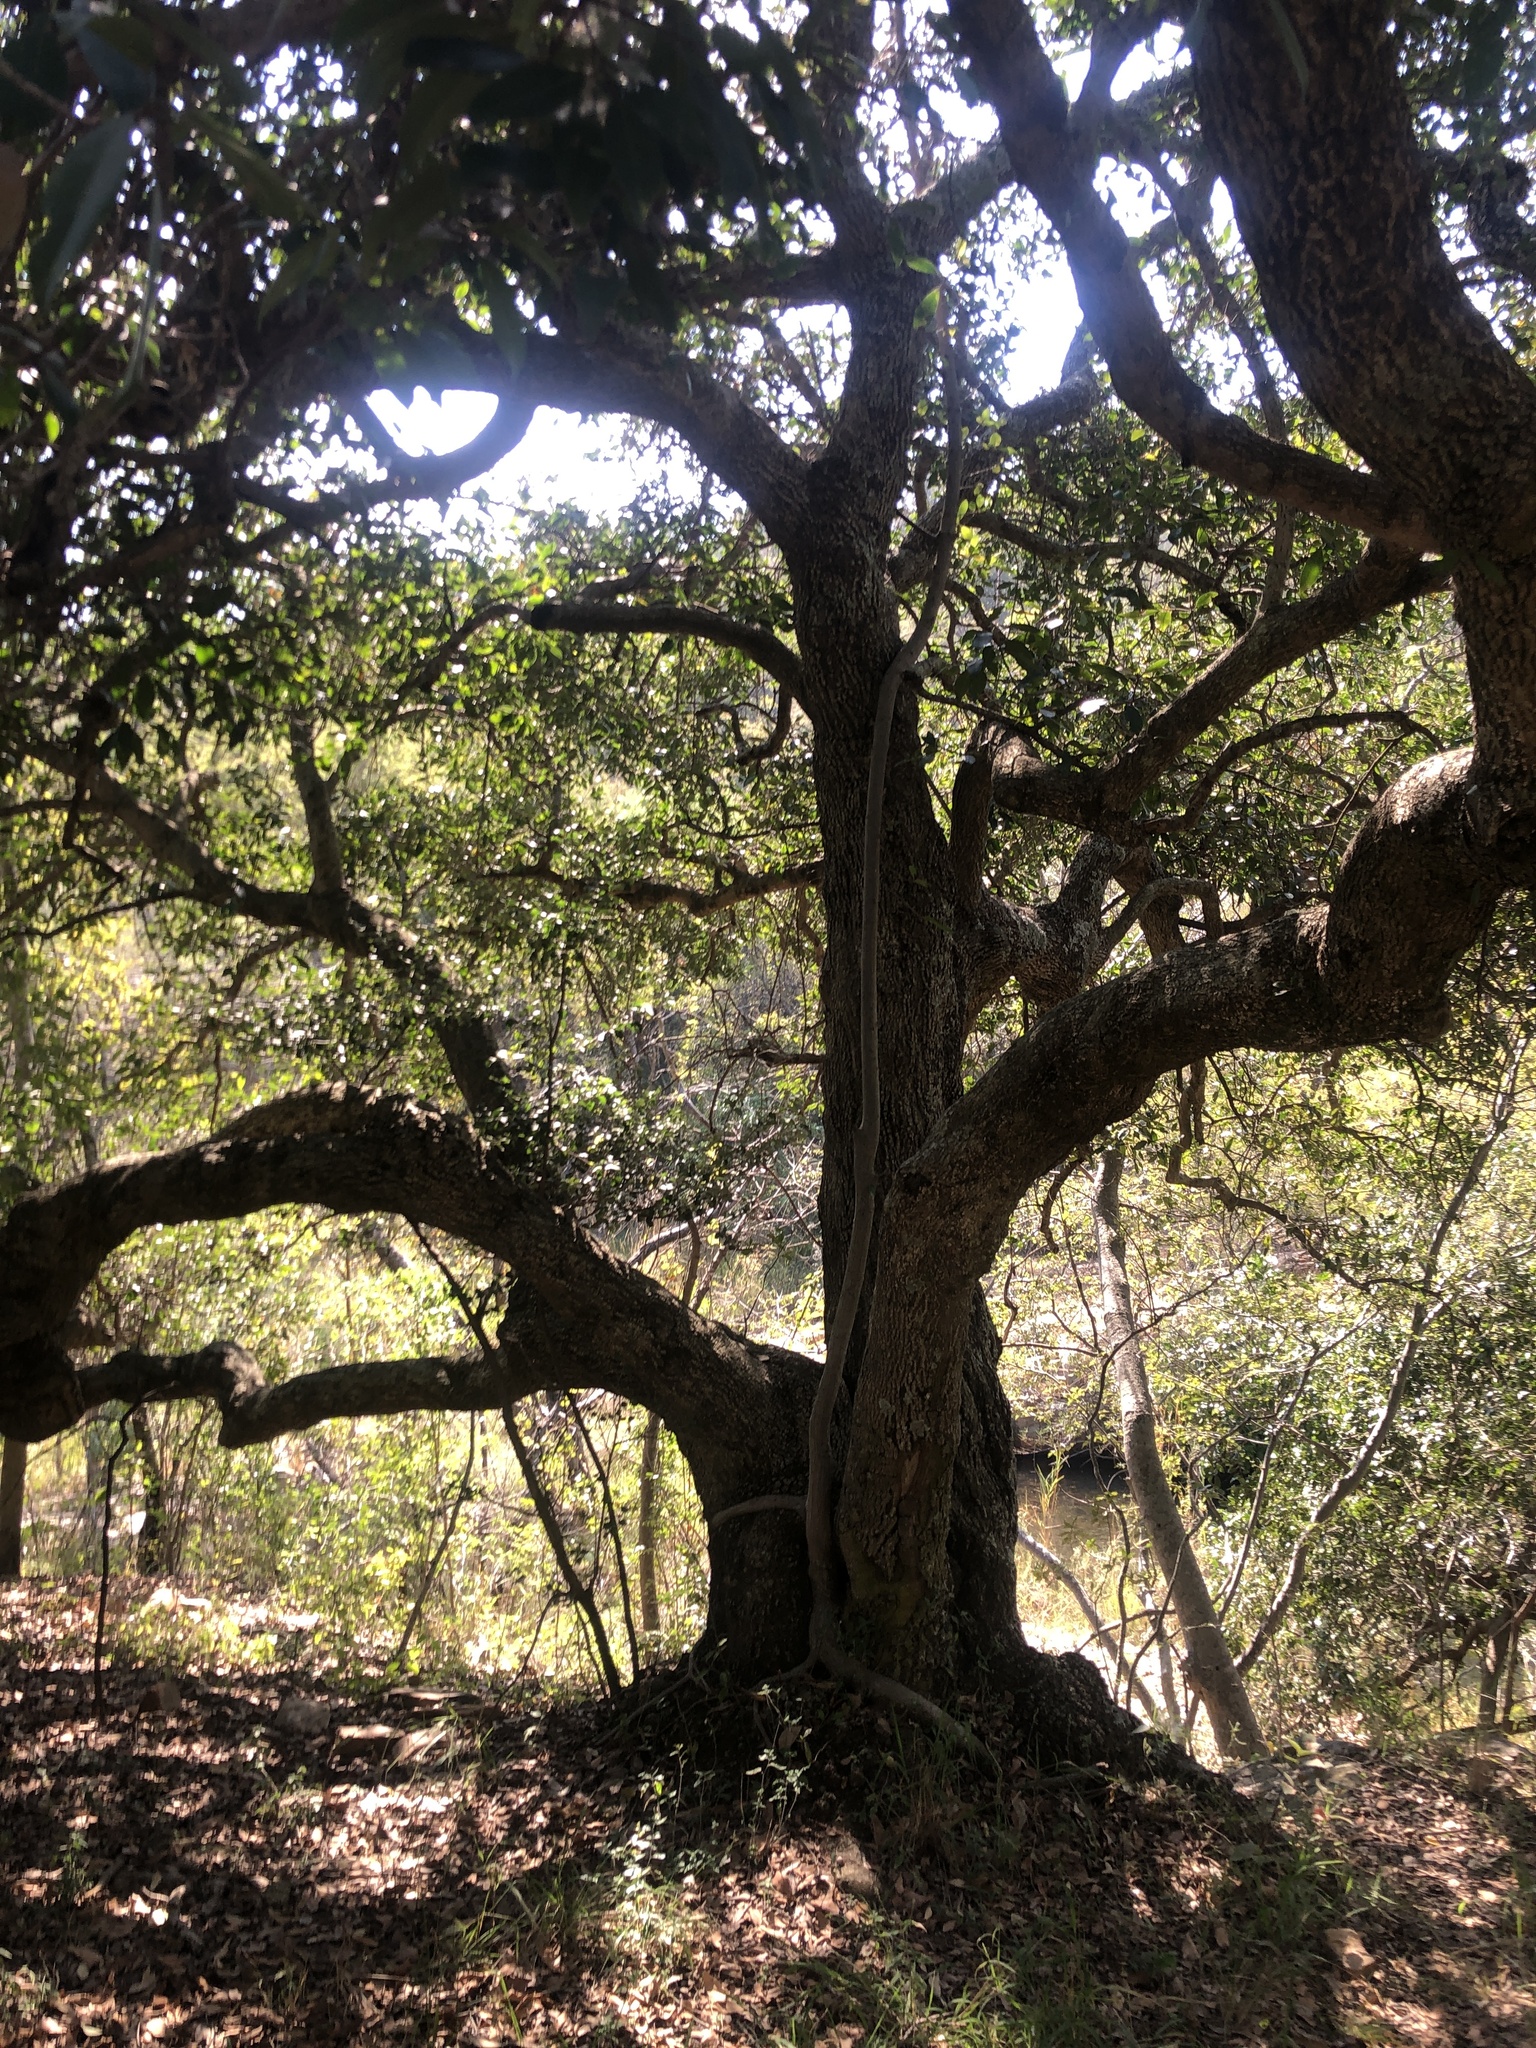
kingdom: Plantae
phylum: Tracheophyta
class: Magnoliopsida
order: Ericales
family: Sapotaceae
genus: Mimusops
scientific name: Mimusops zeyheri
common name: Transvaal red milkwood
